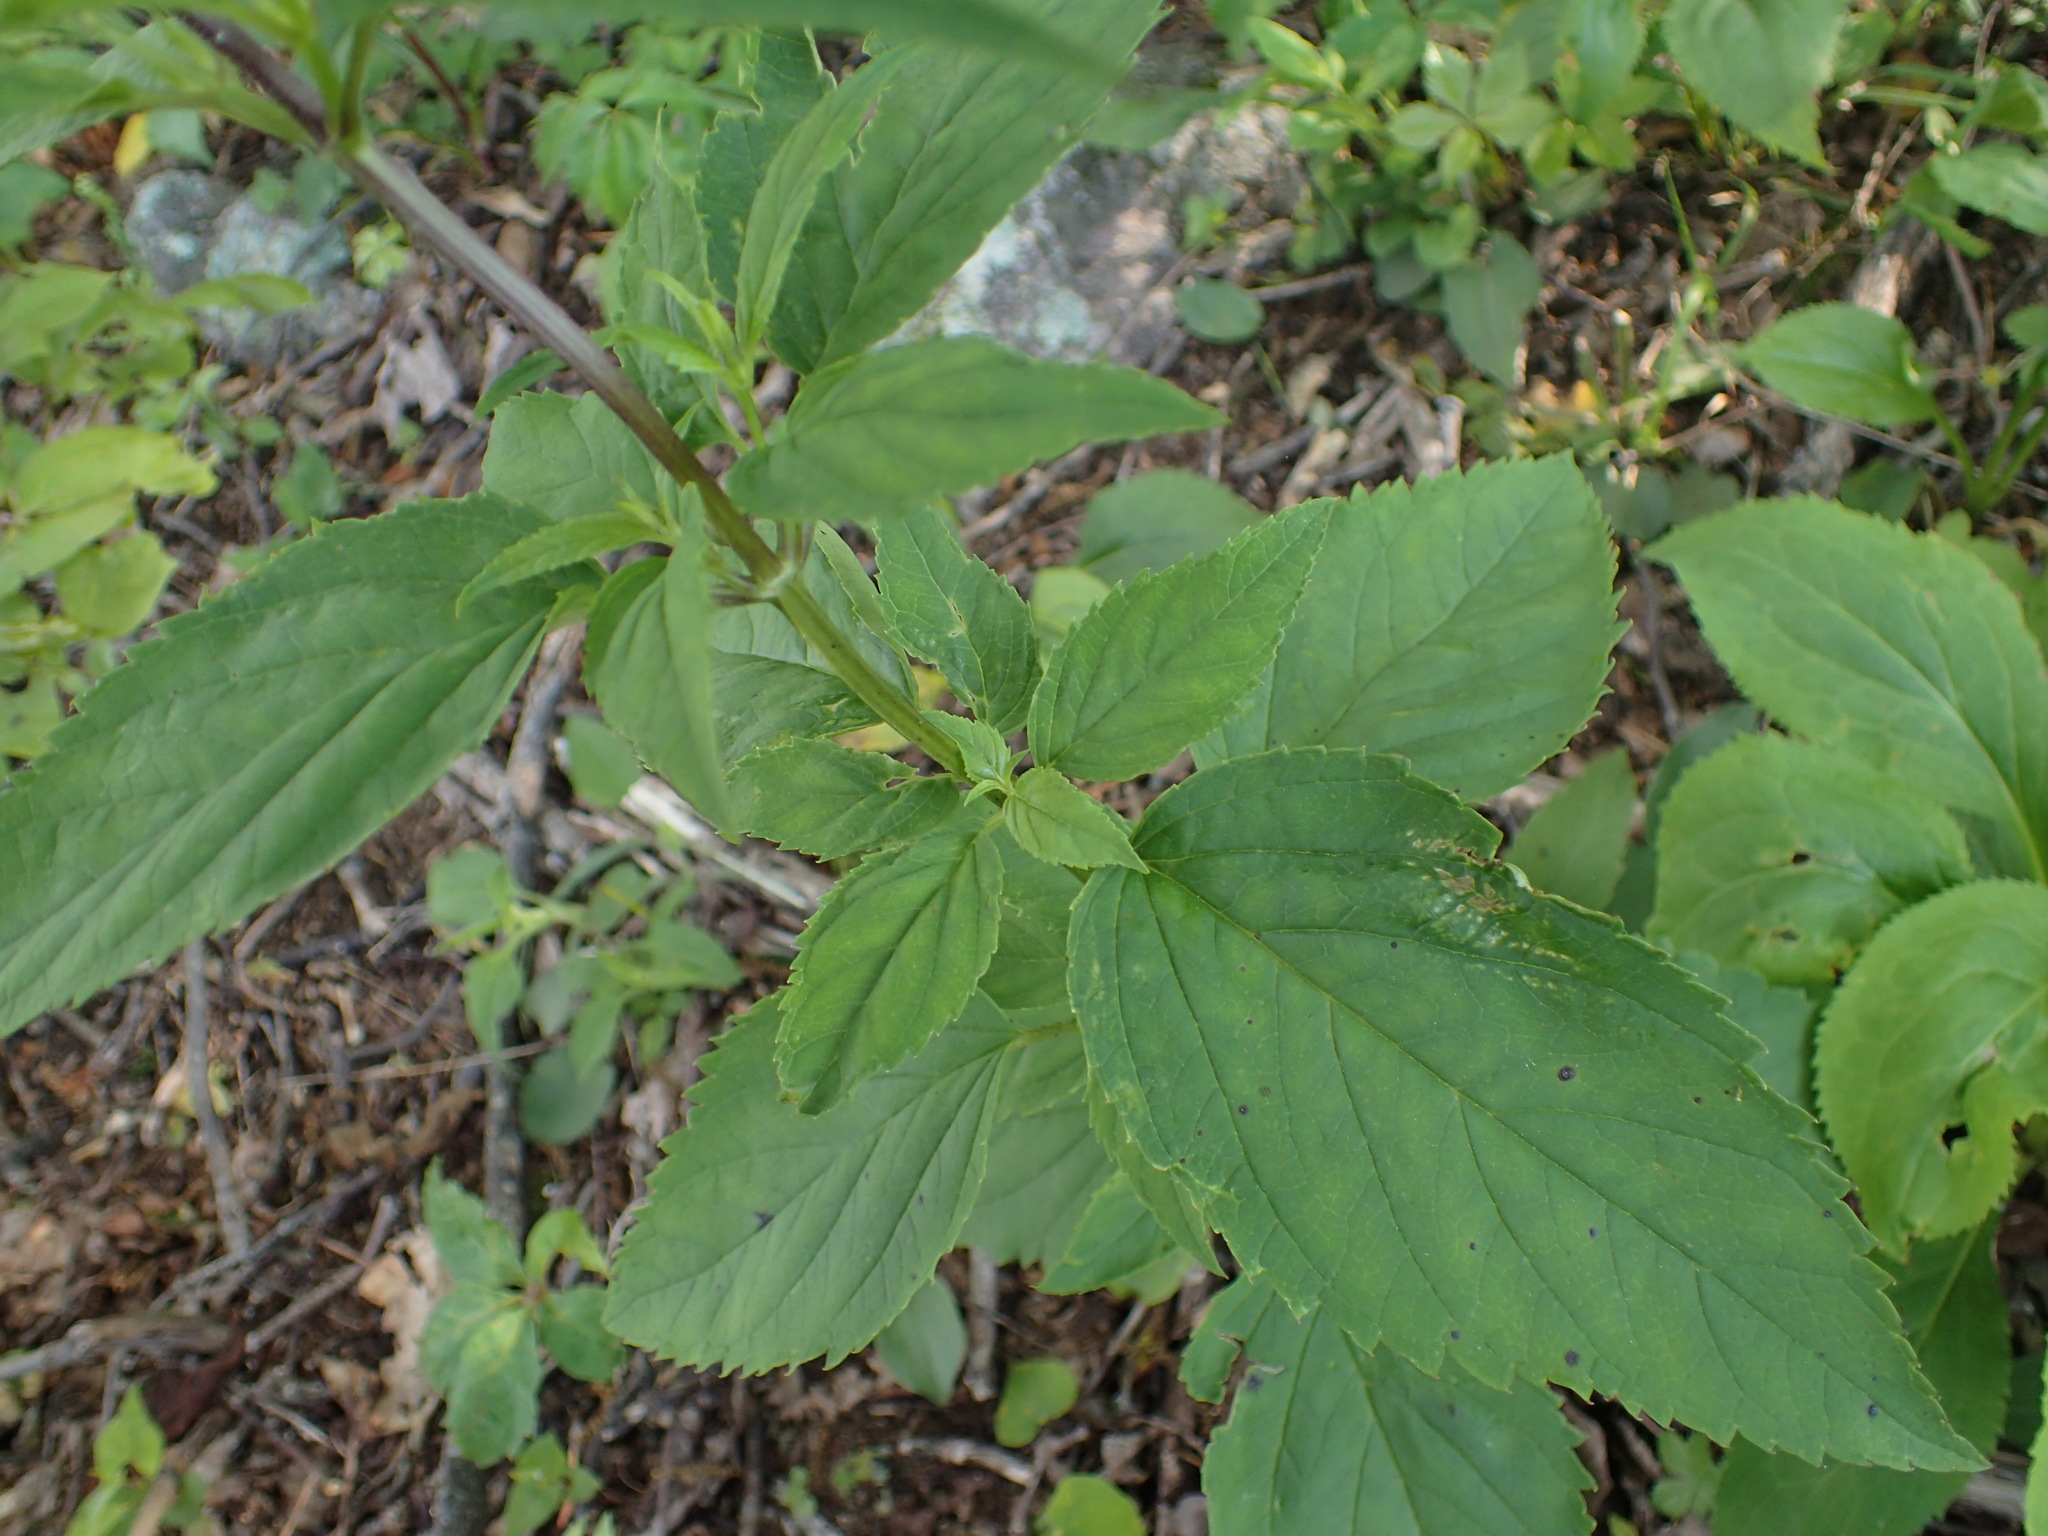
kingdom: Plantae
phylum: Tracheophyta
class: Magnoliopsida
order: Lamiales
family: Scrophulariaceae
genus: Scrophularia
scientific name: Scrophularia lanceolata
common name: American figwort
